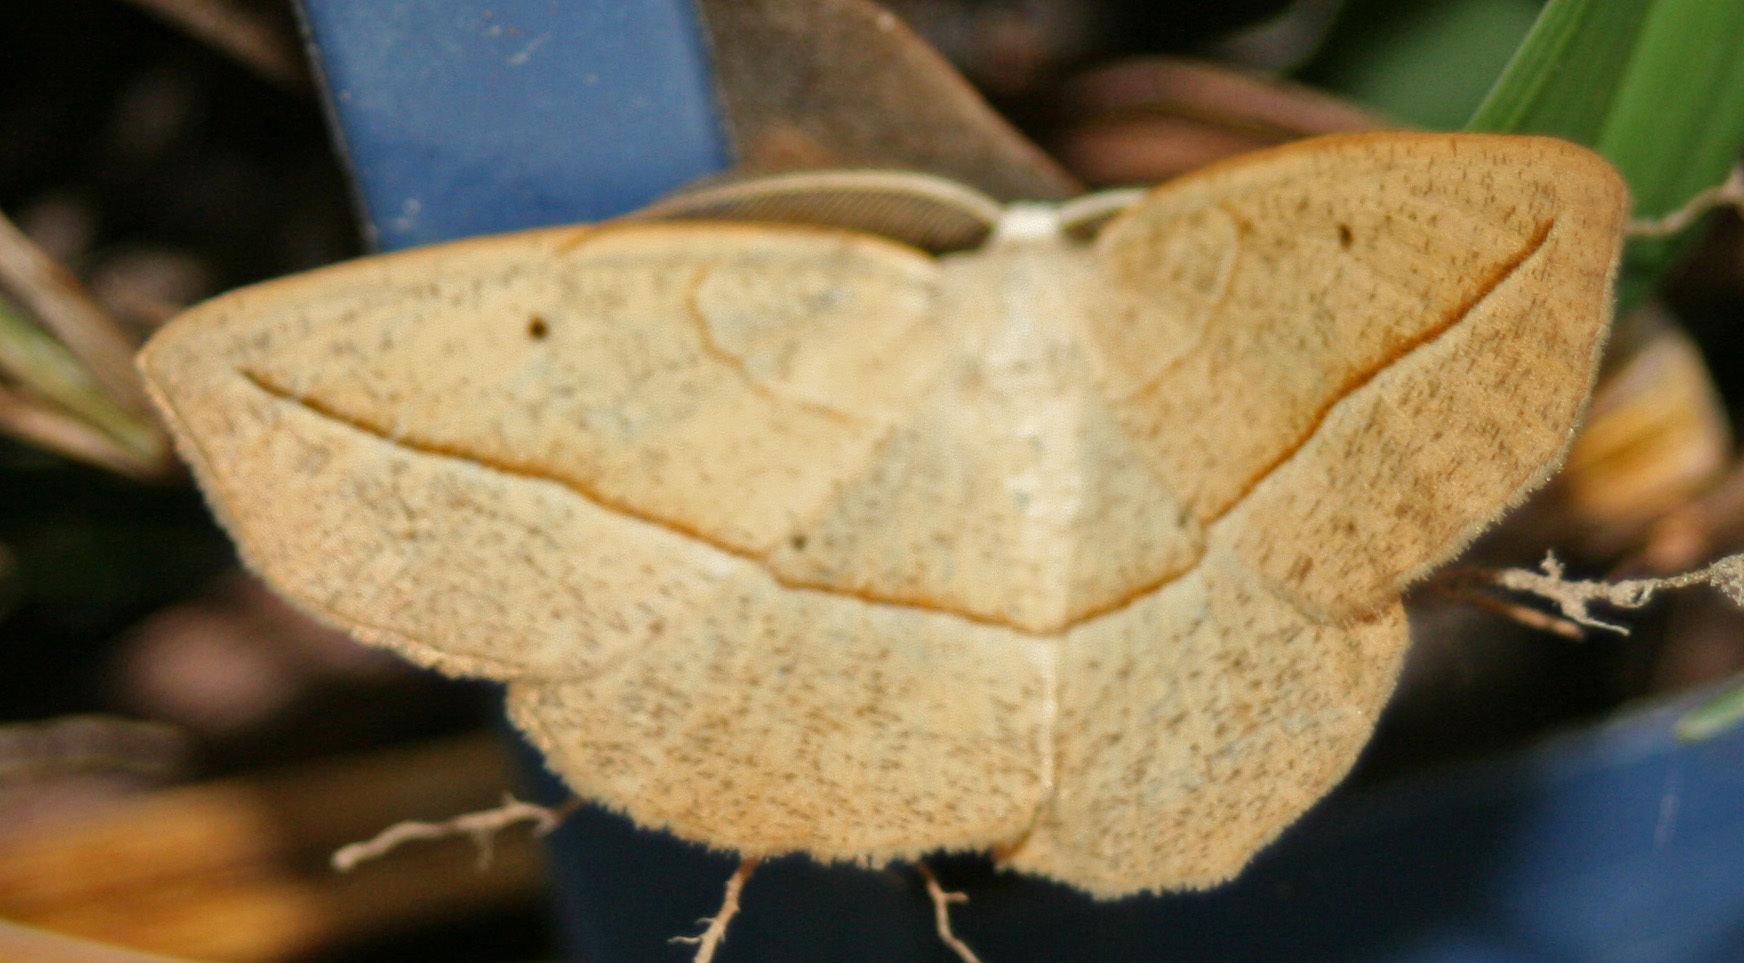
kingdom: Animalia
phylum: Arthropoda
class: Insecta
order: Lepidoptera
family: Geometridae
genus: Eusarca
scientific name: Eusarca confusaria
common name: Confused eusarca
